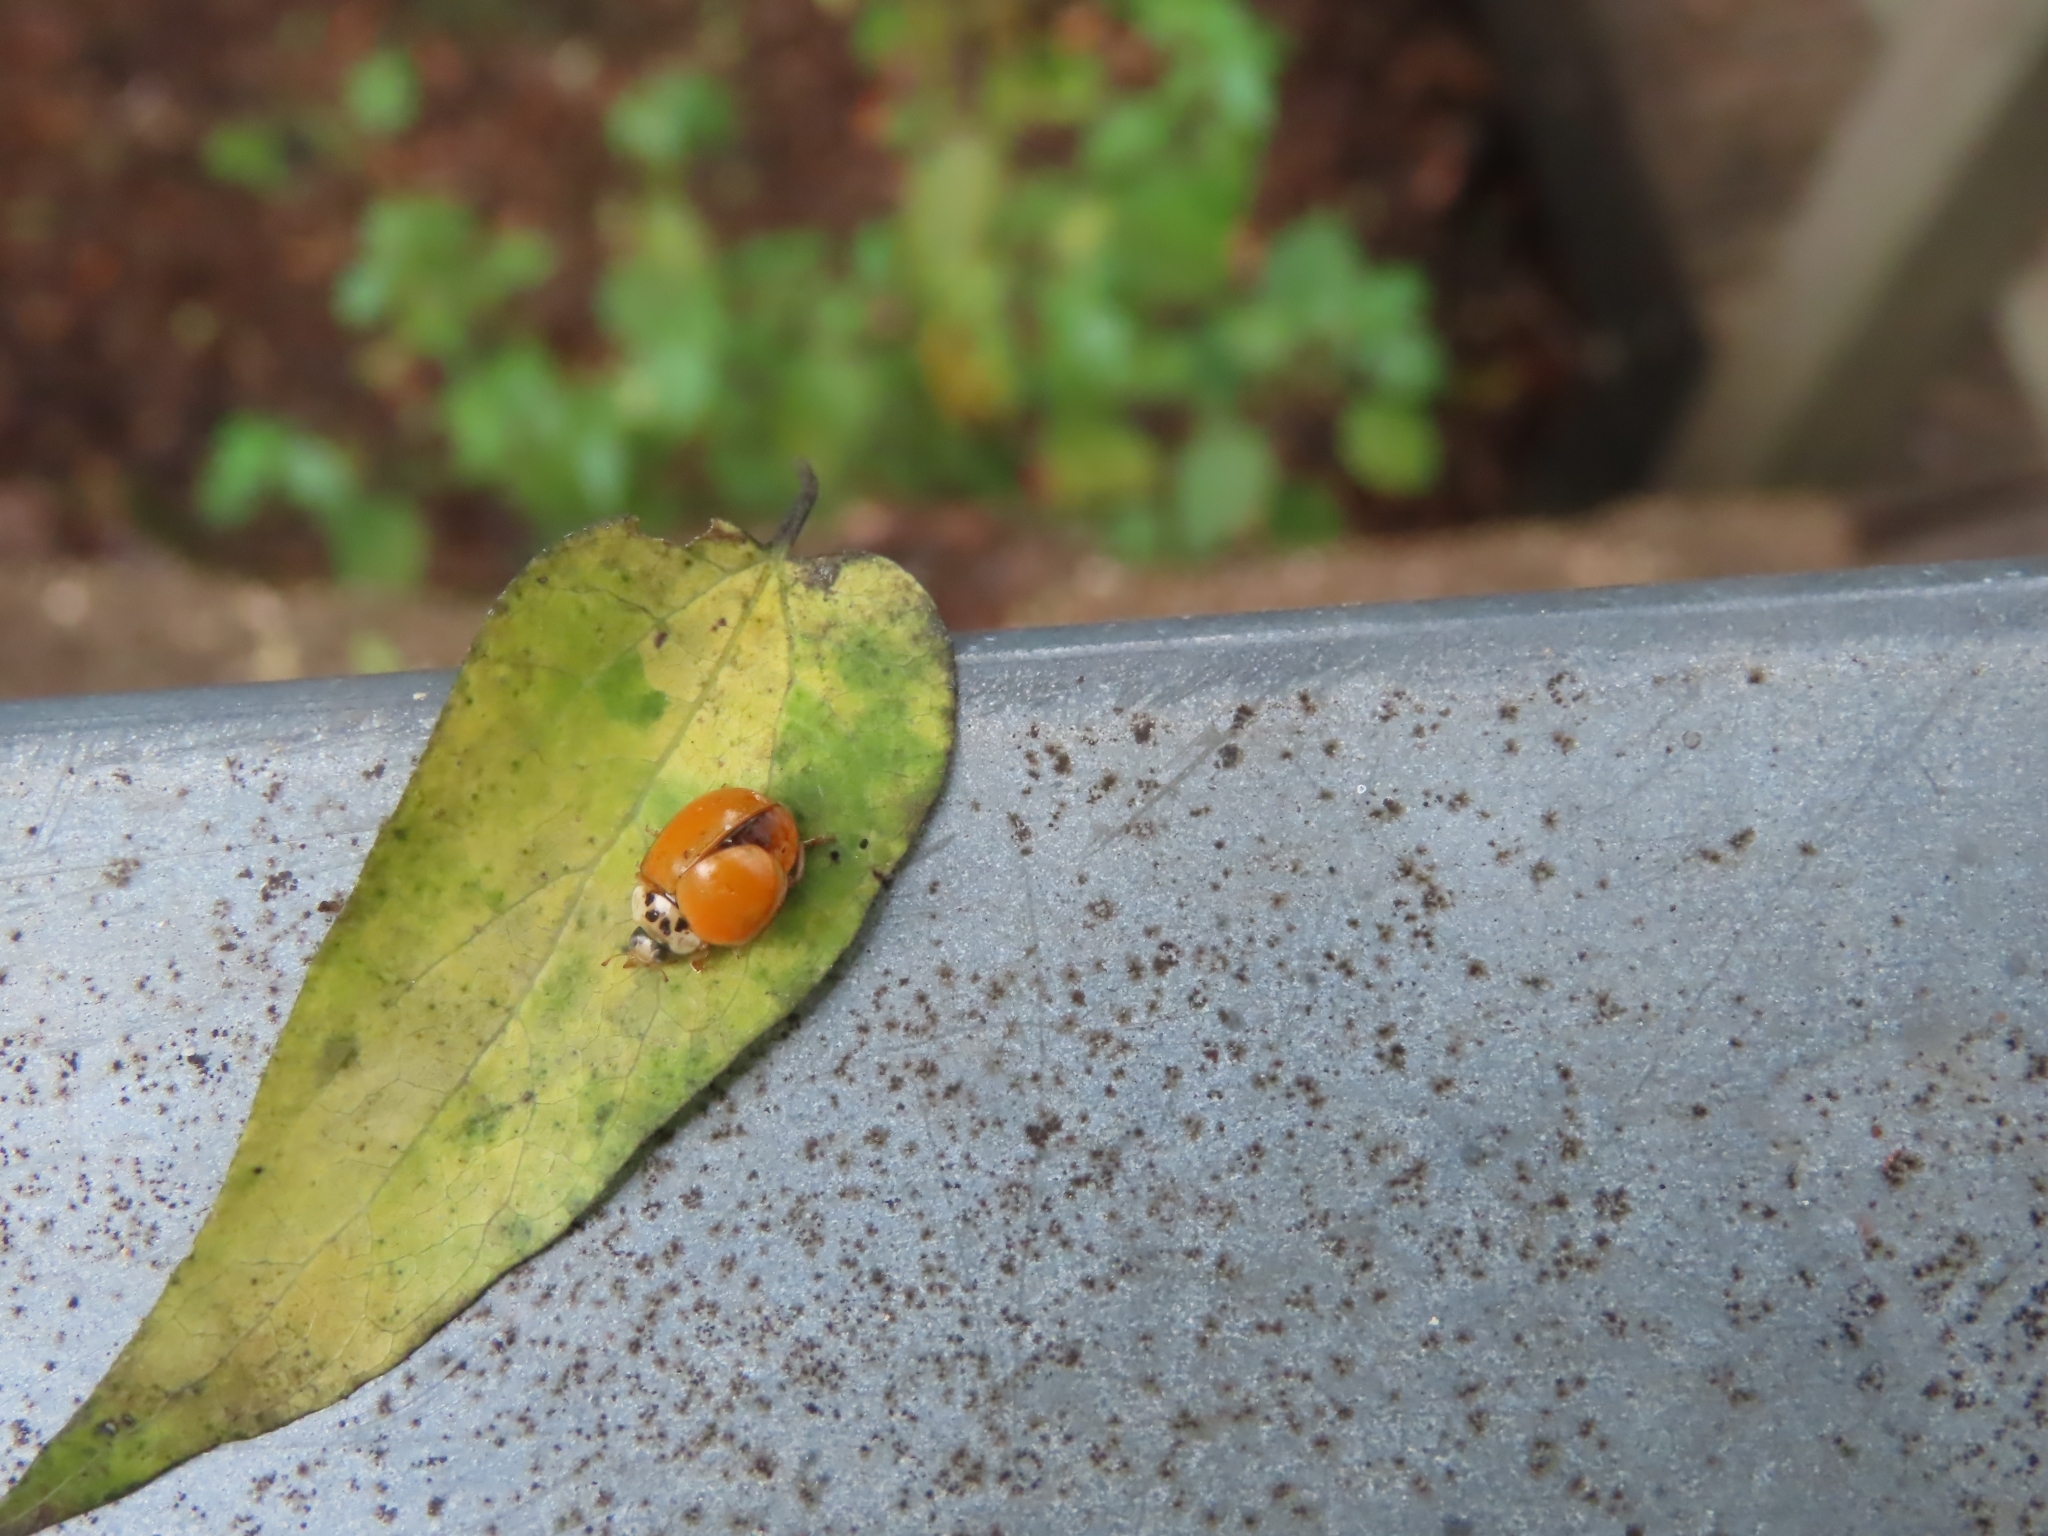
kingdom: Animalia
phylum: Arthropoda
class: Insecta
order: Coleoptera
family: Coccinellidae
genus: Harmonia
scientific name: Harmonia axyridis
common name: Harlequin ladybird
